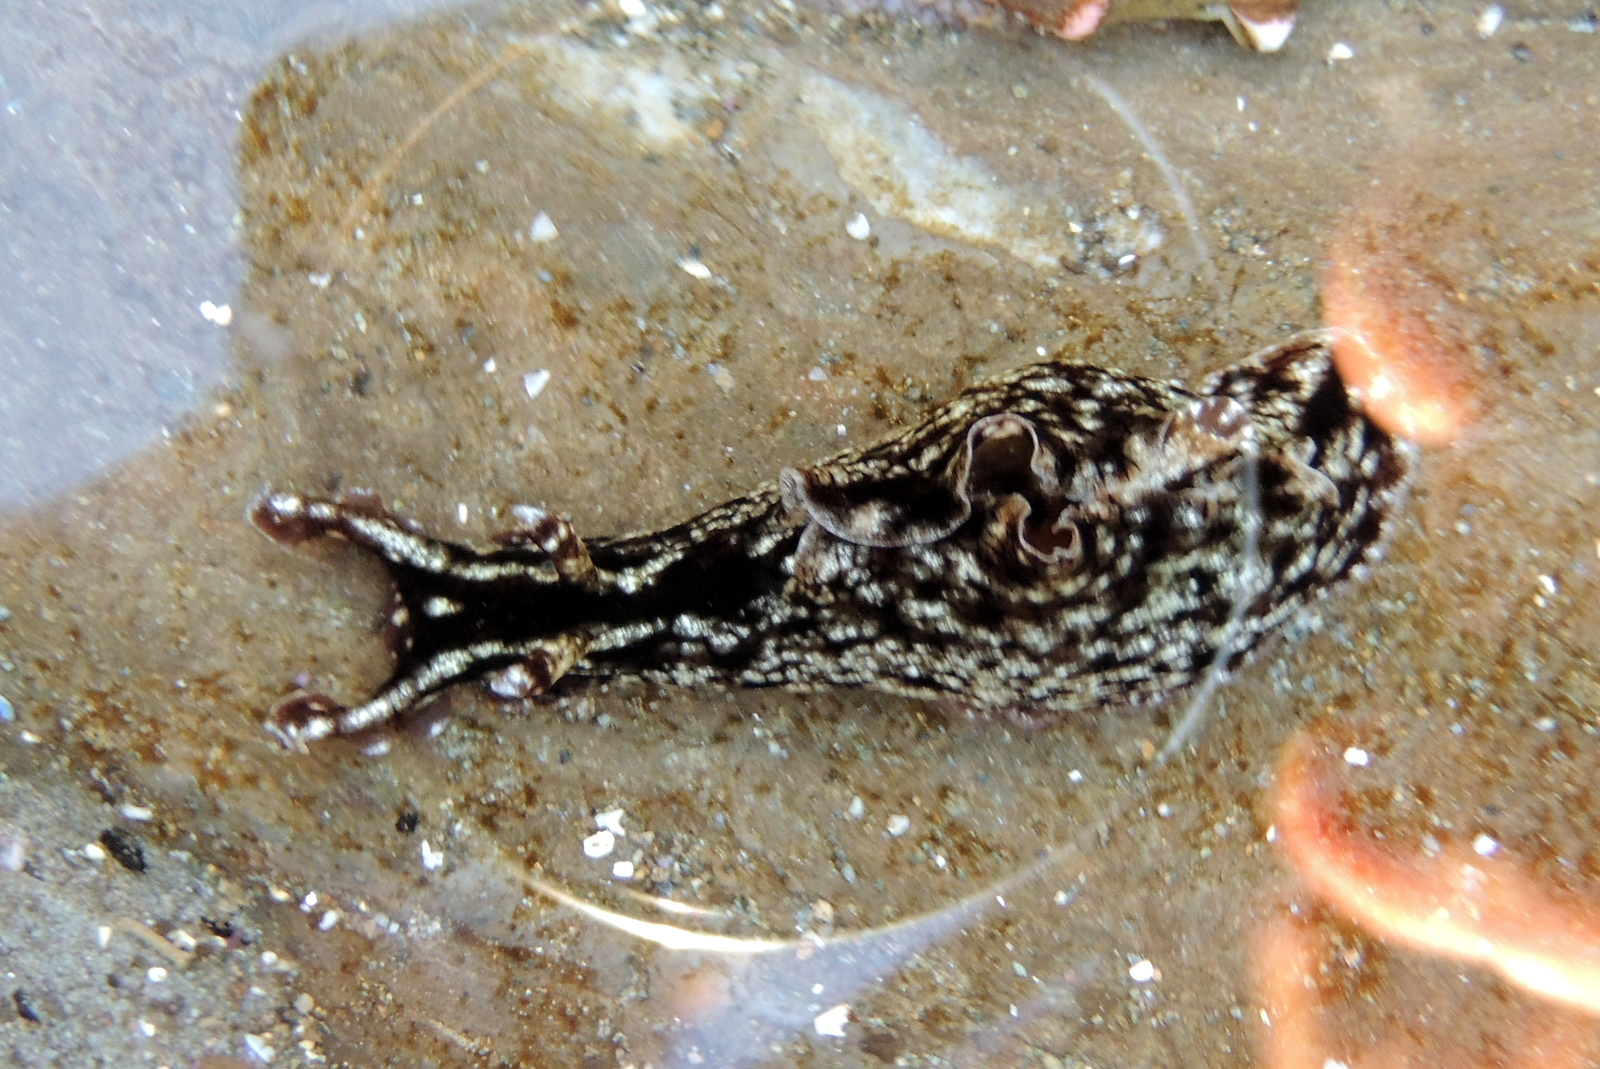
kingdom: Animalia
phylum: Mollusca
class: Gastropoda
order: Aplysiida
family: Aplysiidae
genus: Aplysia
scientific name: Aplysia californica
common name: California seahare
